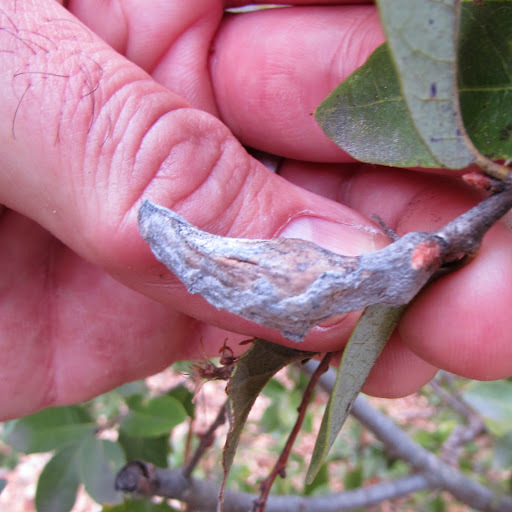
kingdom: Animalia
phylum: Arthropoda
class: Insecta
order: Hymenoptera
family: Cynipidae
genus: Heteroecus
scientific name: Heteroecus
